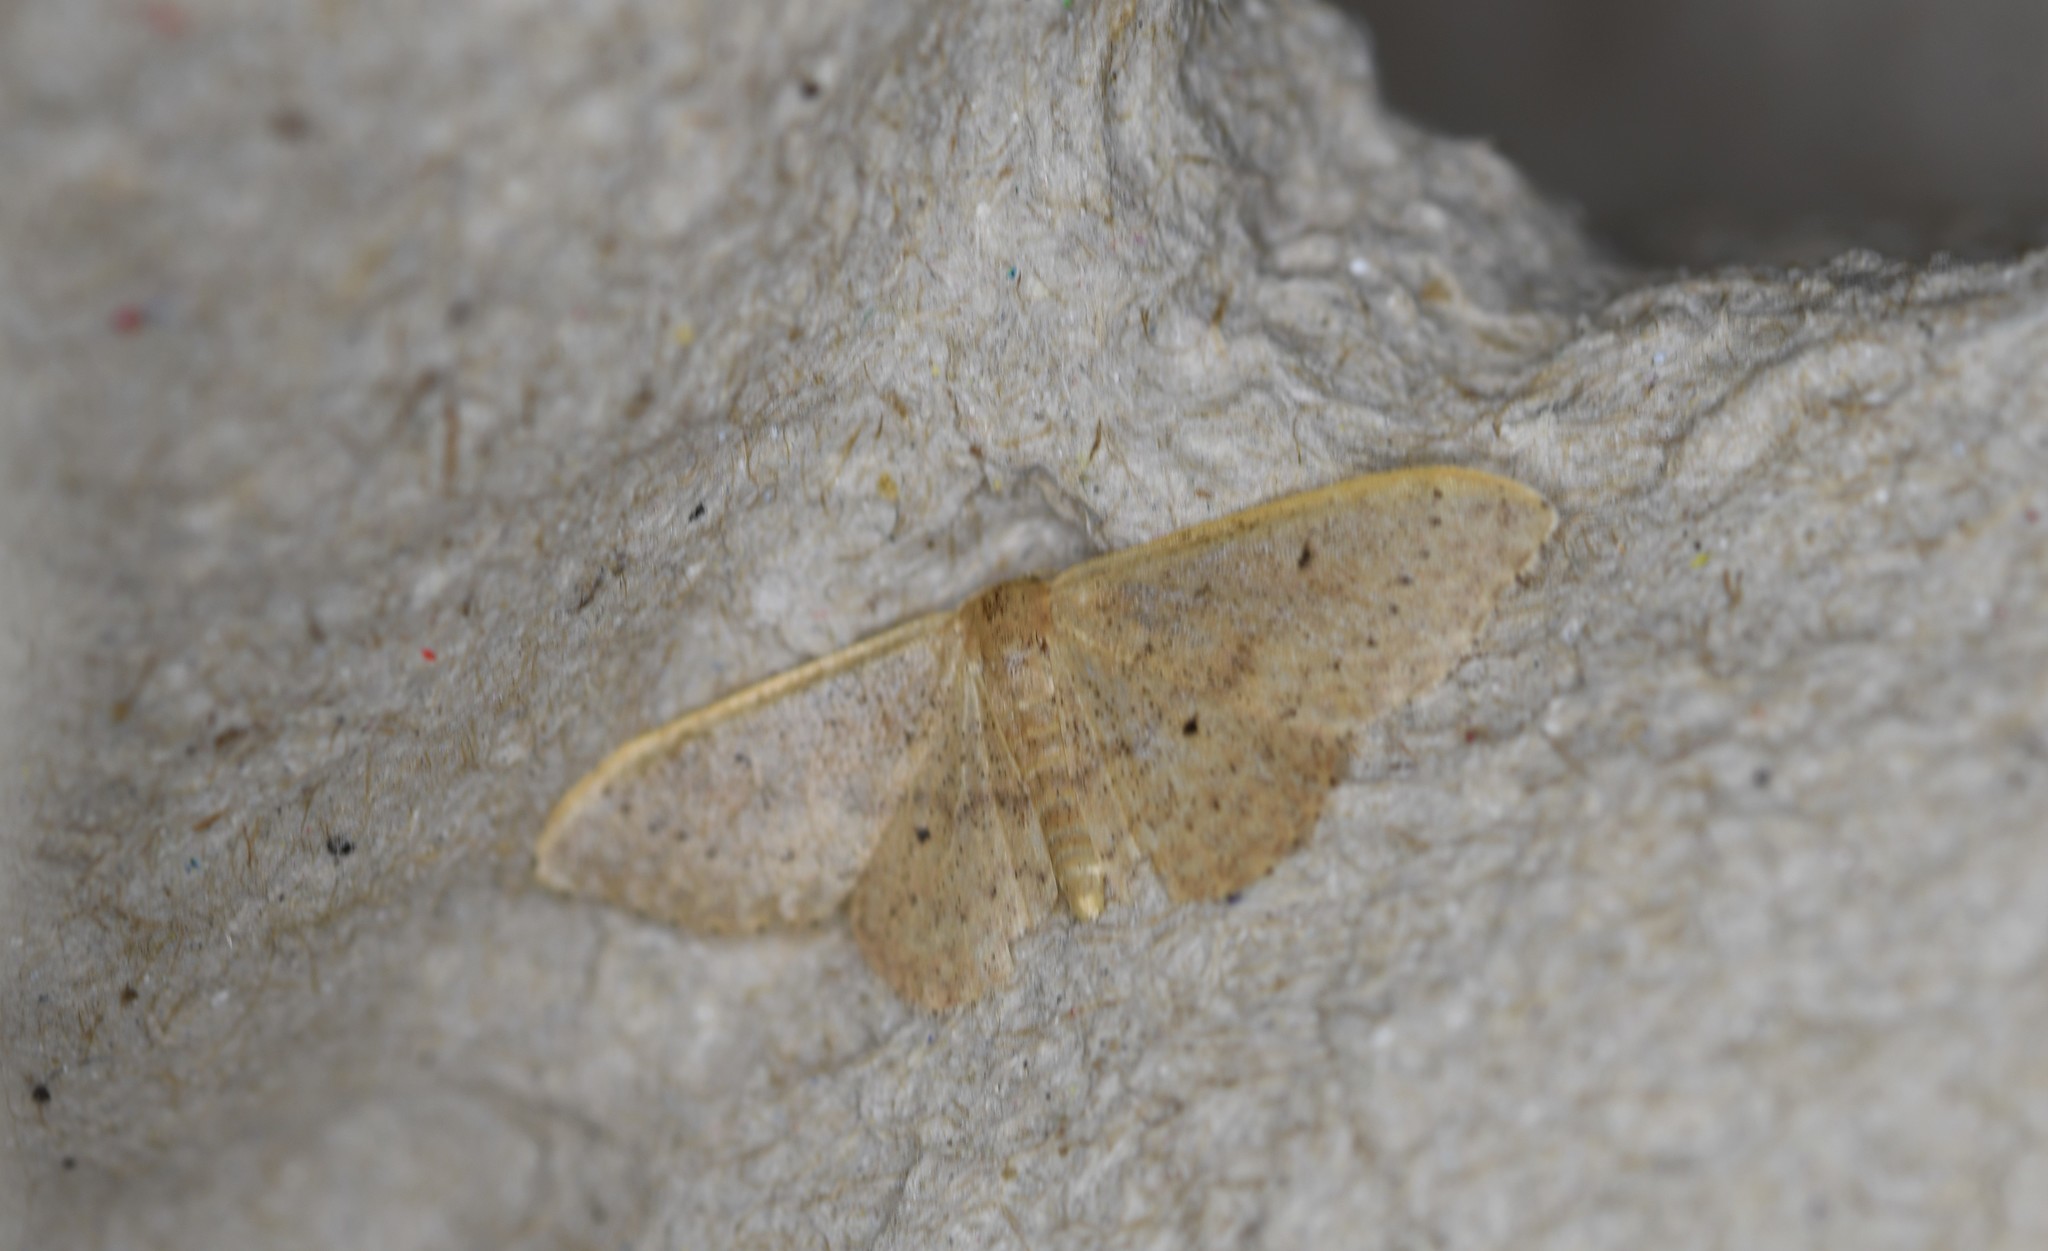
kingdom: Animalia
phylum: Arthropoda
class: Insecta
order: Lepidoptera
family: Geometridae
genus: Idaea
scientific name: Idaea eugeniata
